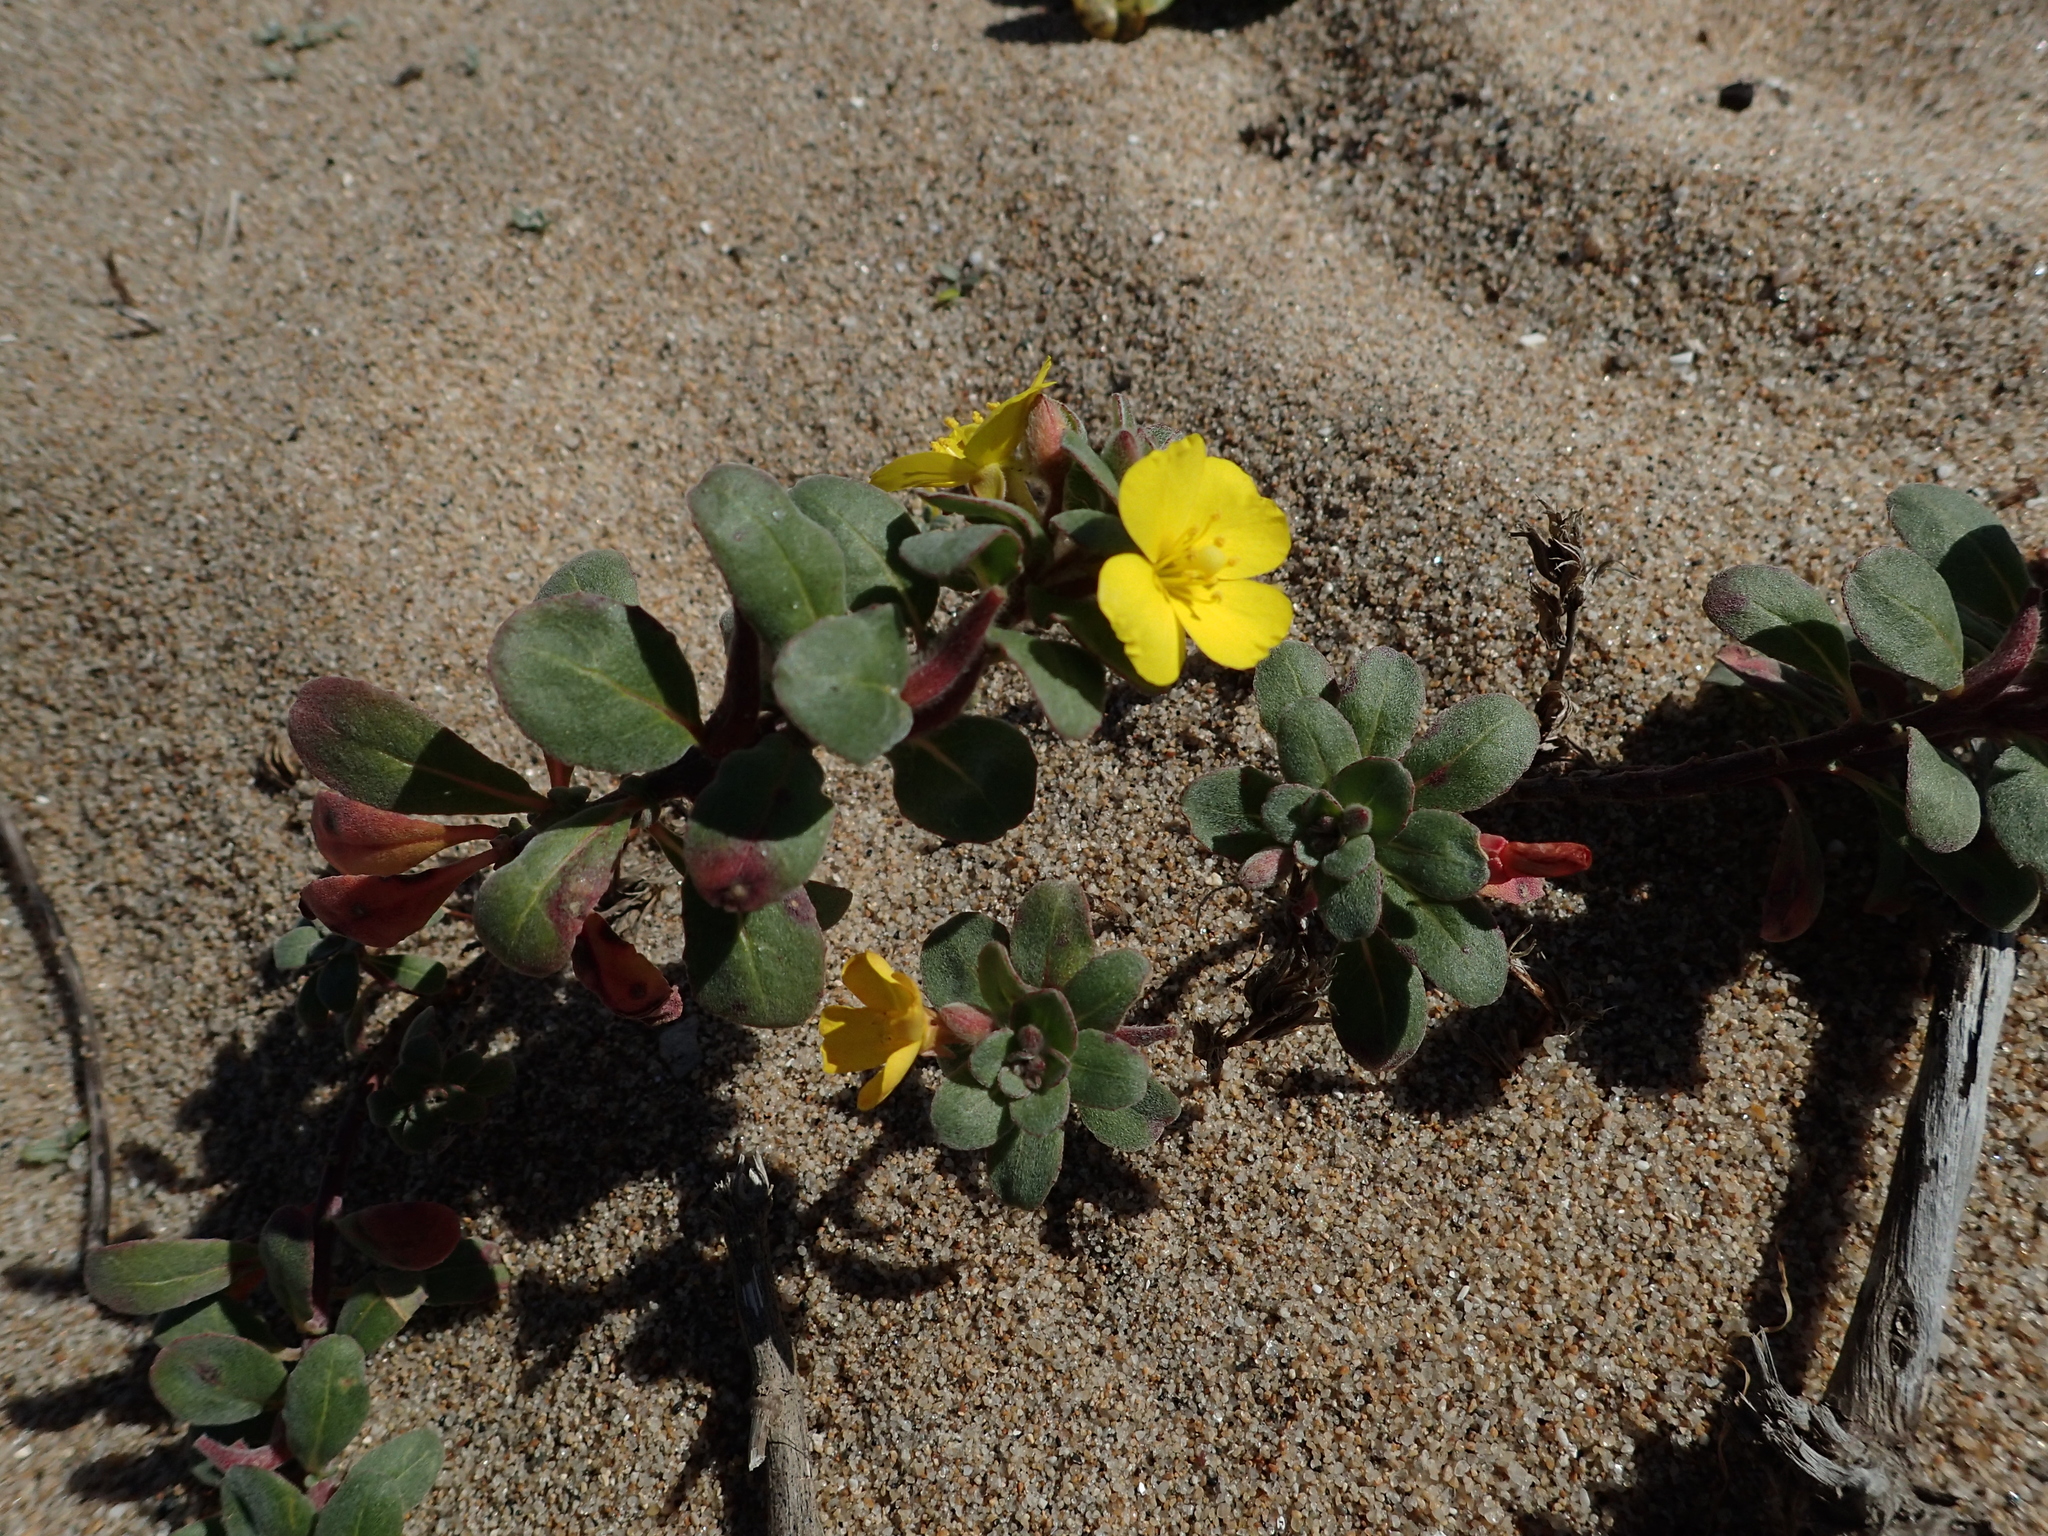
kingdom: Plantae
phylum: Tracheophyta
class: Magnoliopsida
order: Myrtales
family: Onagraceae
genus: Camissoniopsis
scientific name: Camissoniopsis cheiranthifolia
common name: Beach suncup
